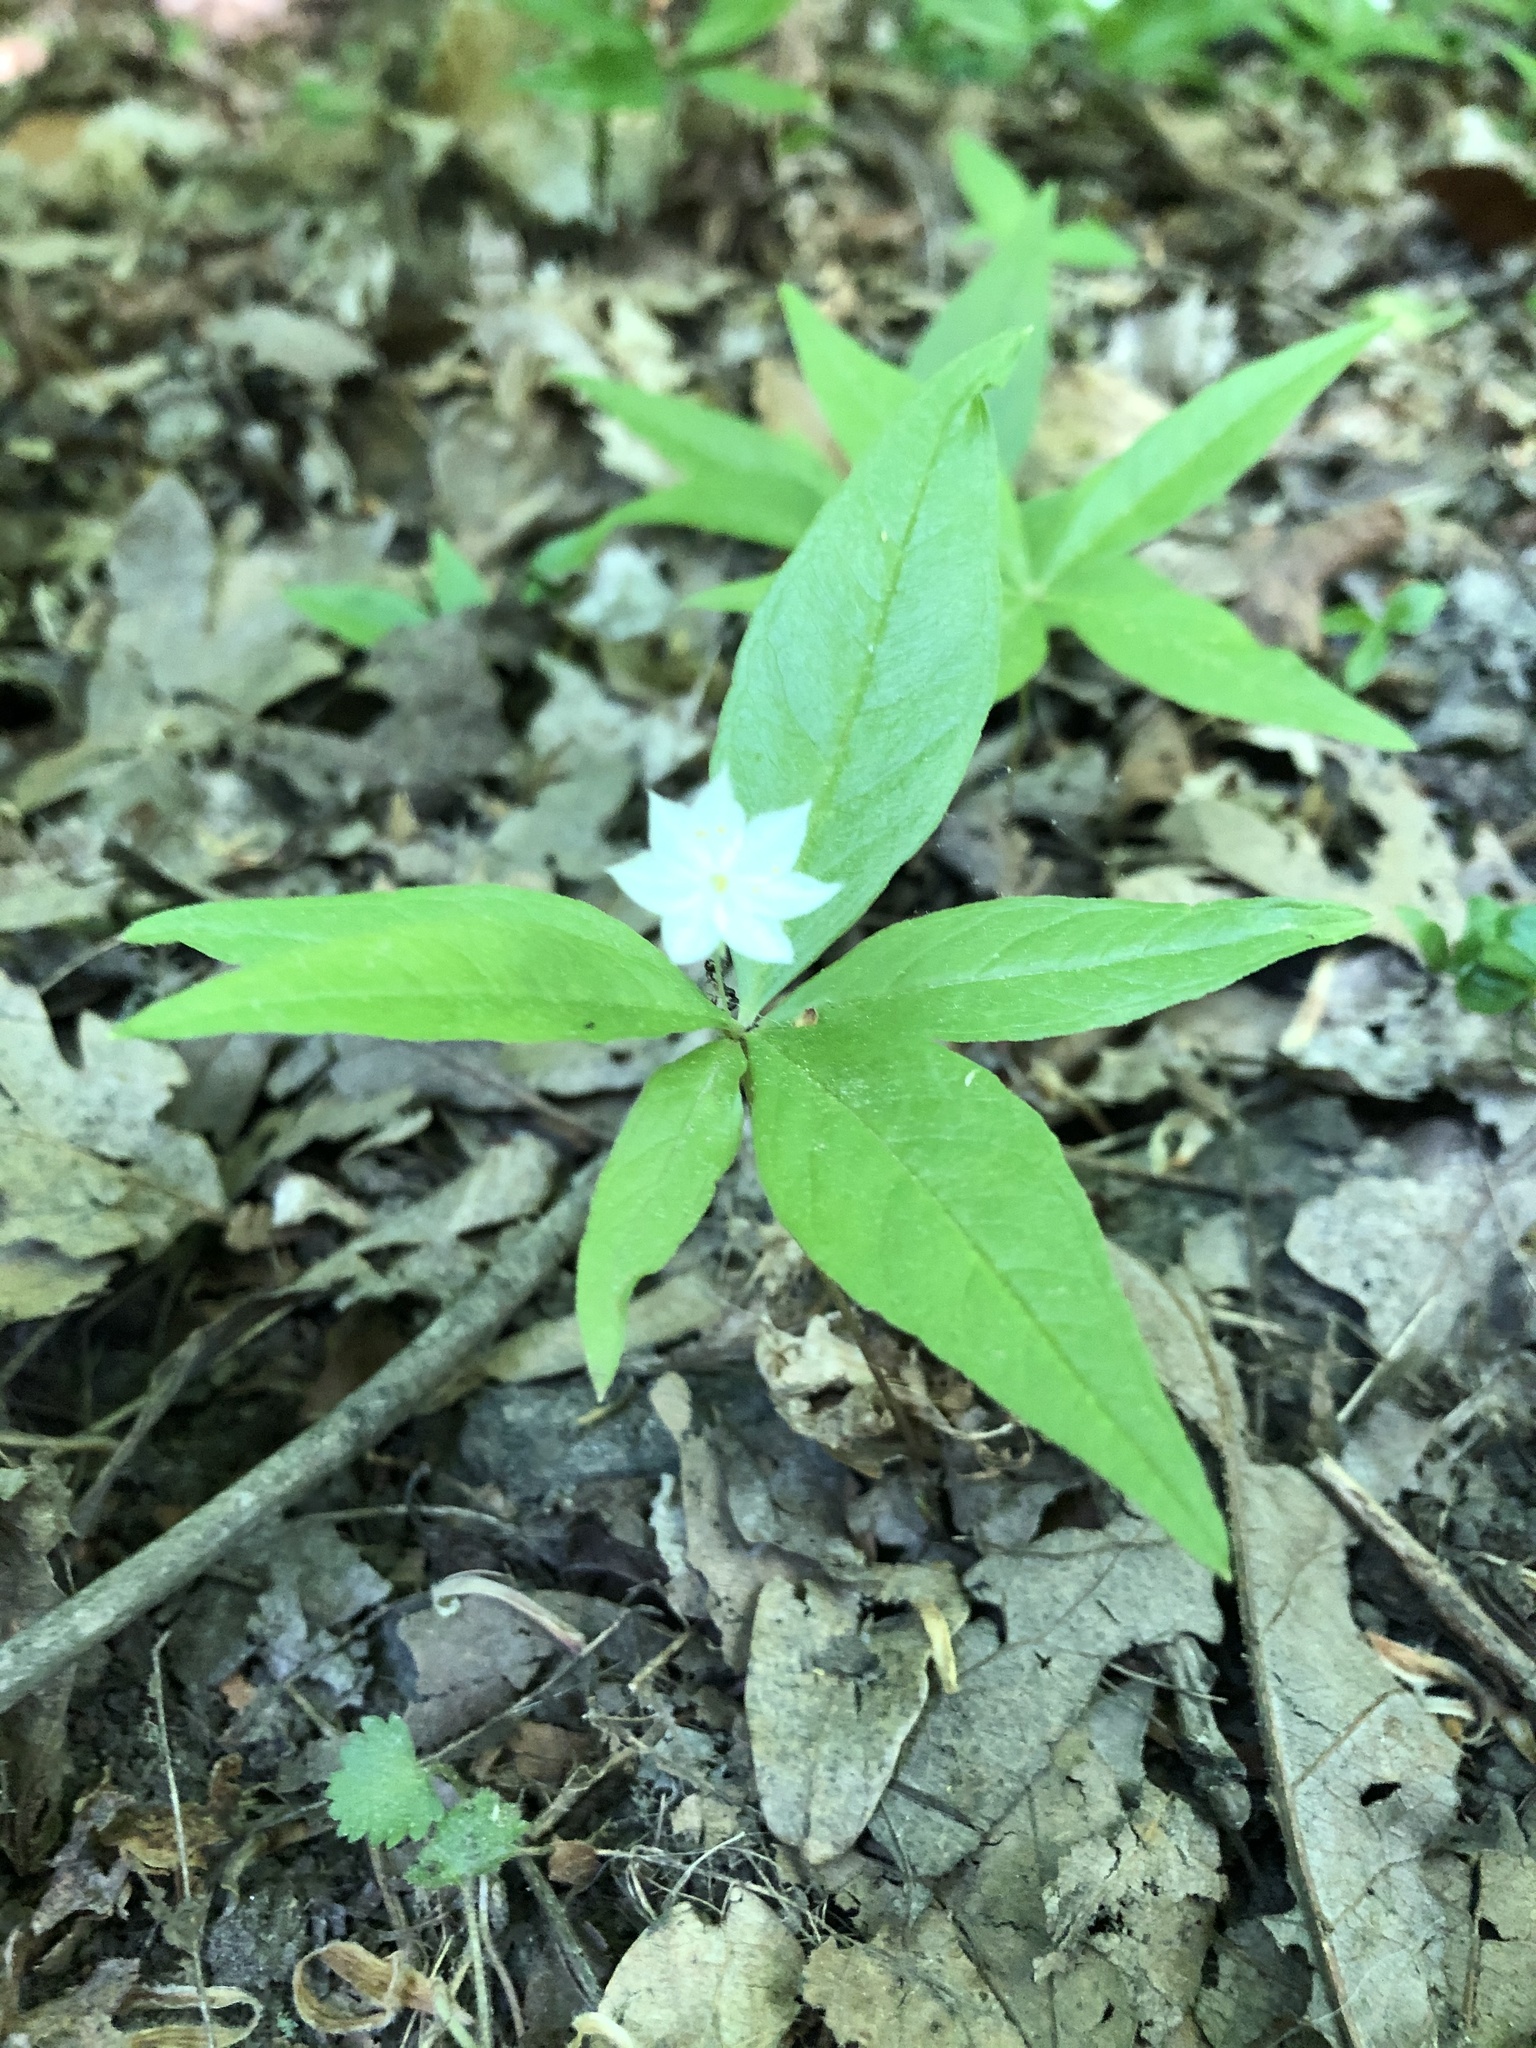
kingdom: Plantae
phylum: Tracheophyta
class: Magnoliopsida
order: Ericales
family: Primulaceae
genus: Lysimachia
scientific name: Lysimachia borealis
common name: American starflower
